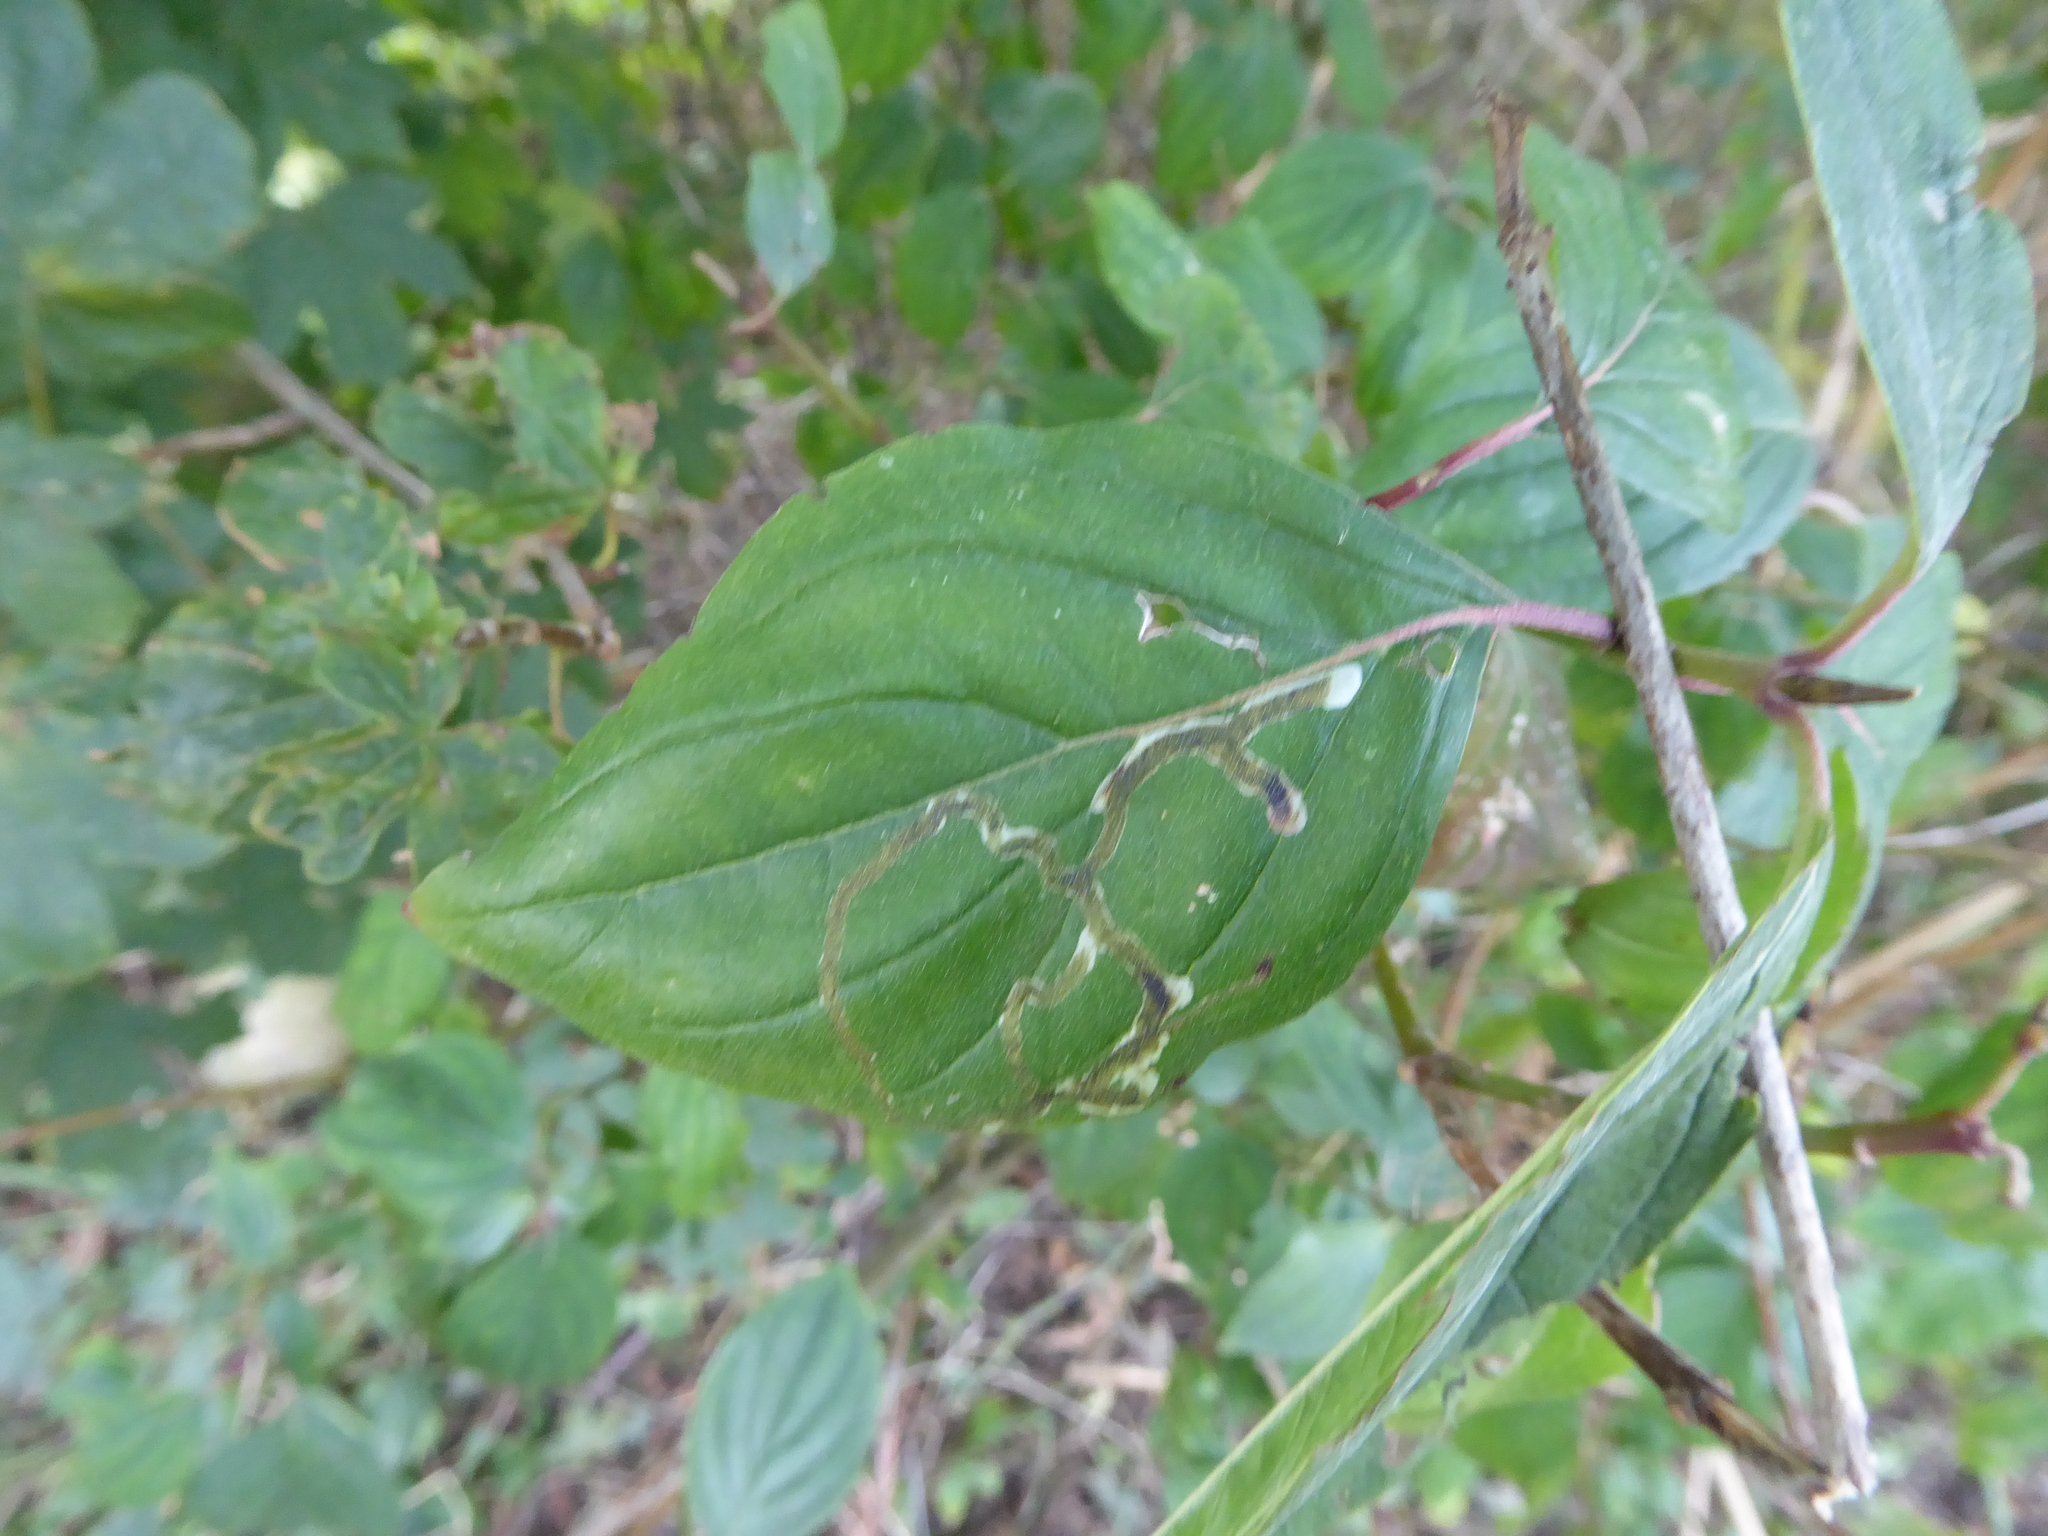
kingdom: Animalia
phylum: Arthropoda
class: Insecta
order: Diptera
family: Agromyzidae
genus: Phytomyza
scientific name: Phytomyza agromyzina
